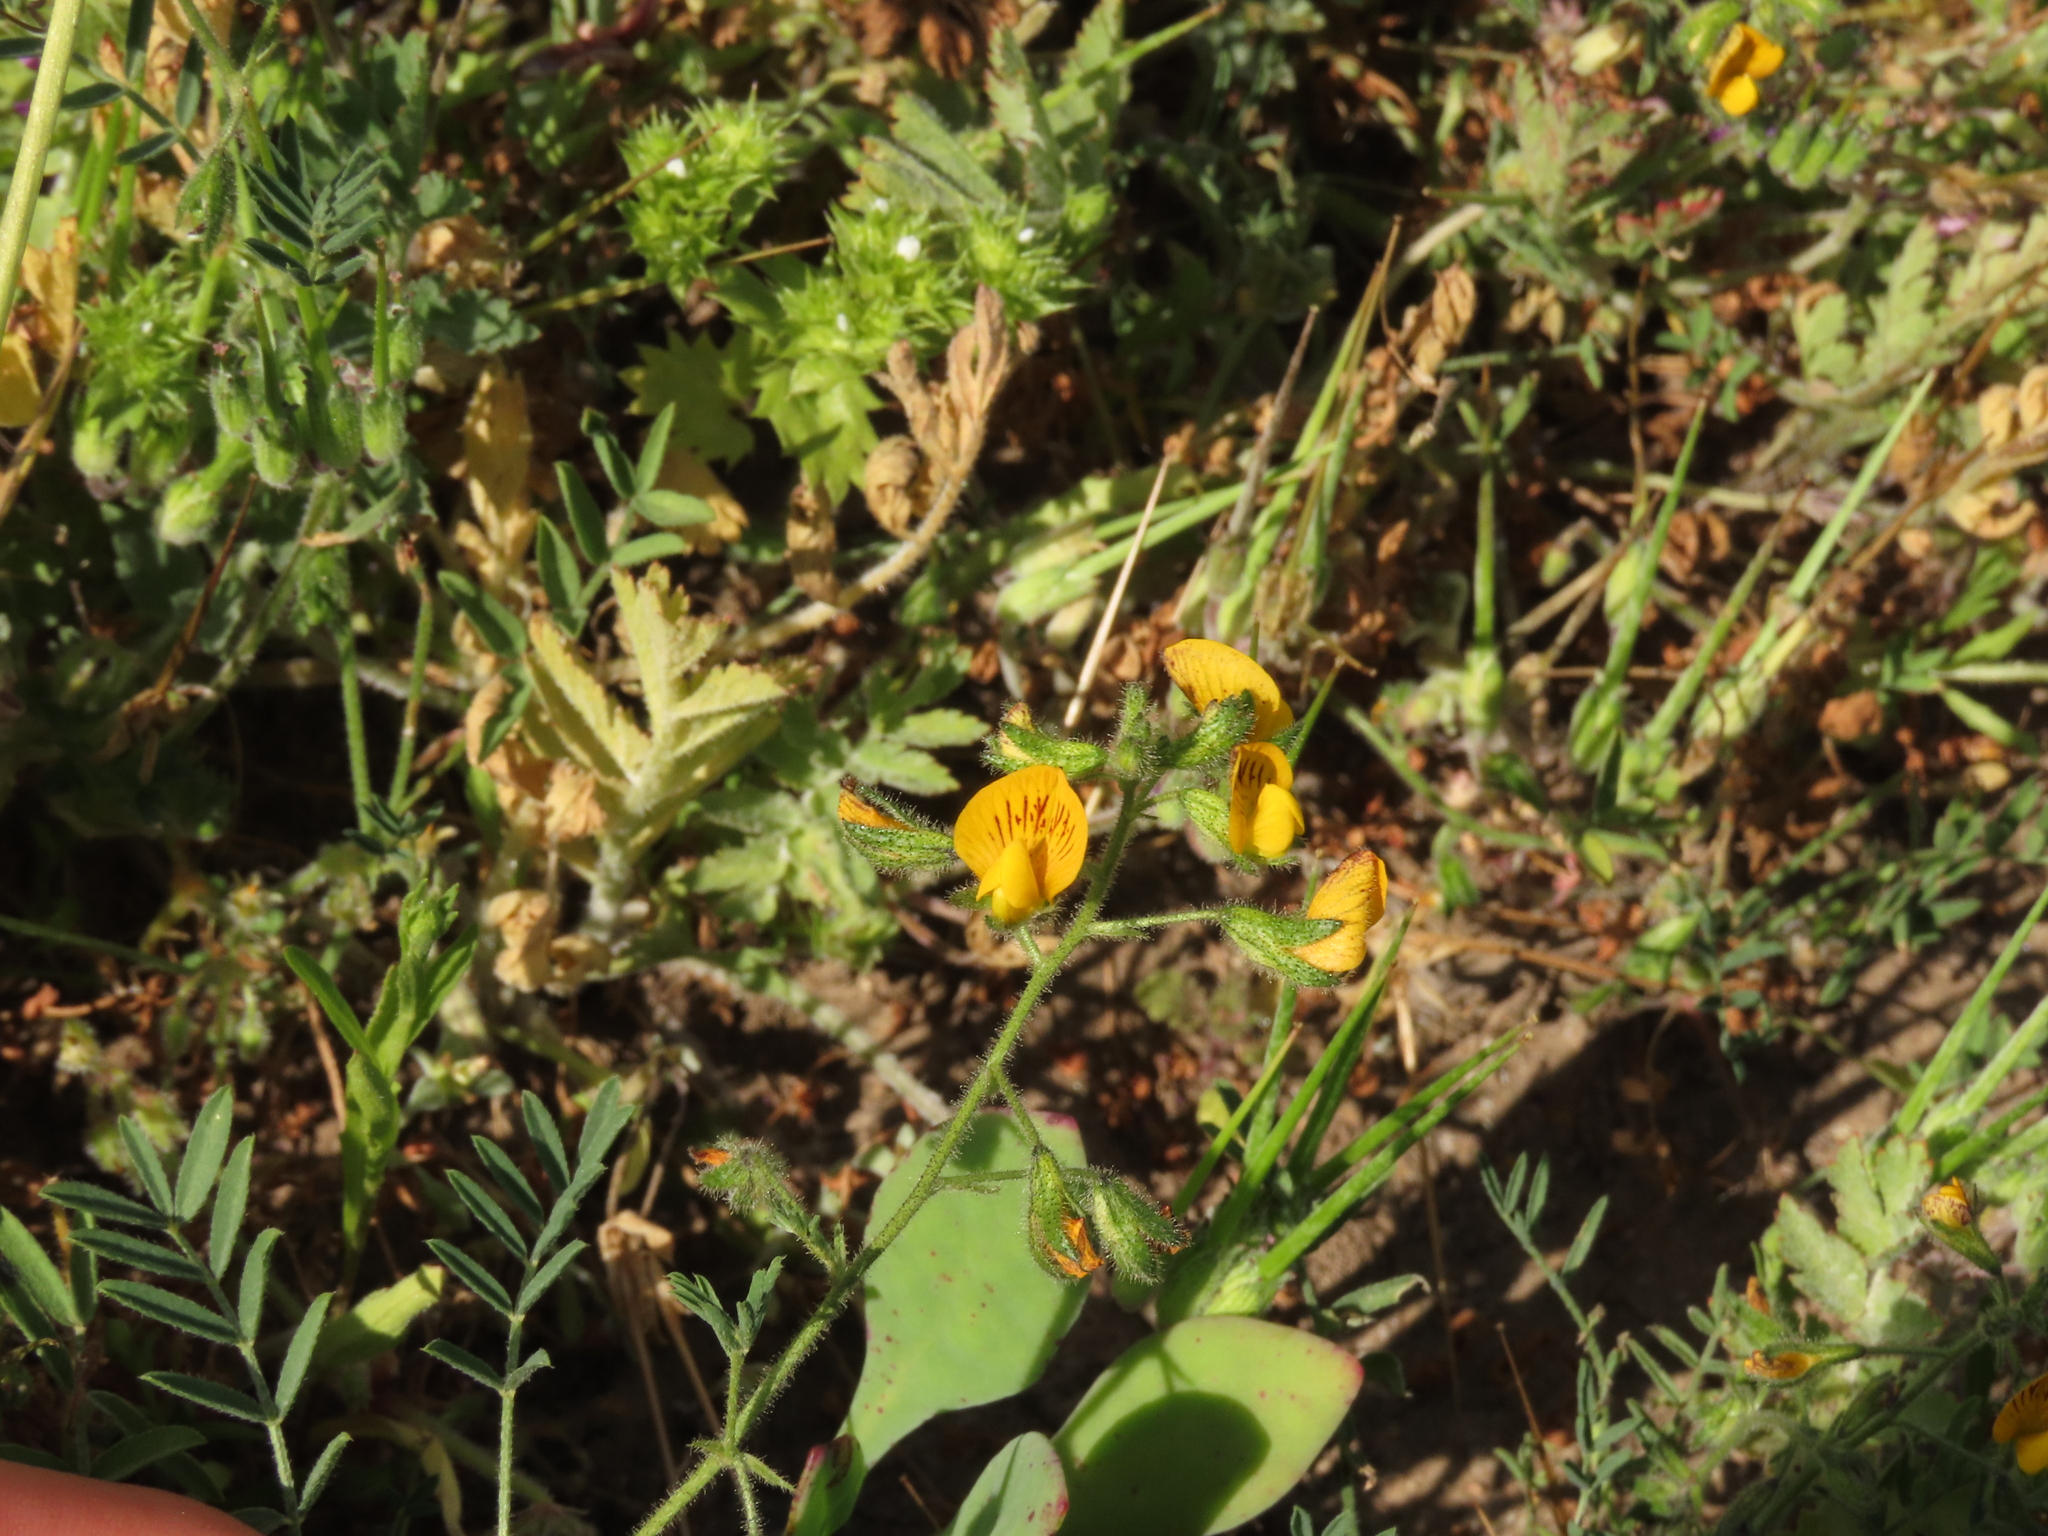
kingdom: Plantae
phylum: Tracheophyta
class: Magnoliopsida
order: Fabales
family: Fabaceae
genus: Adesmia
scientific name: Adesmia tenella
